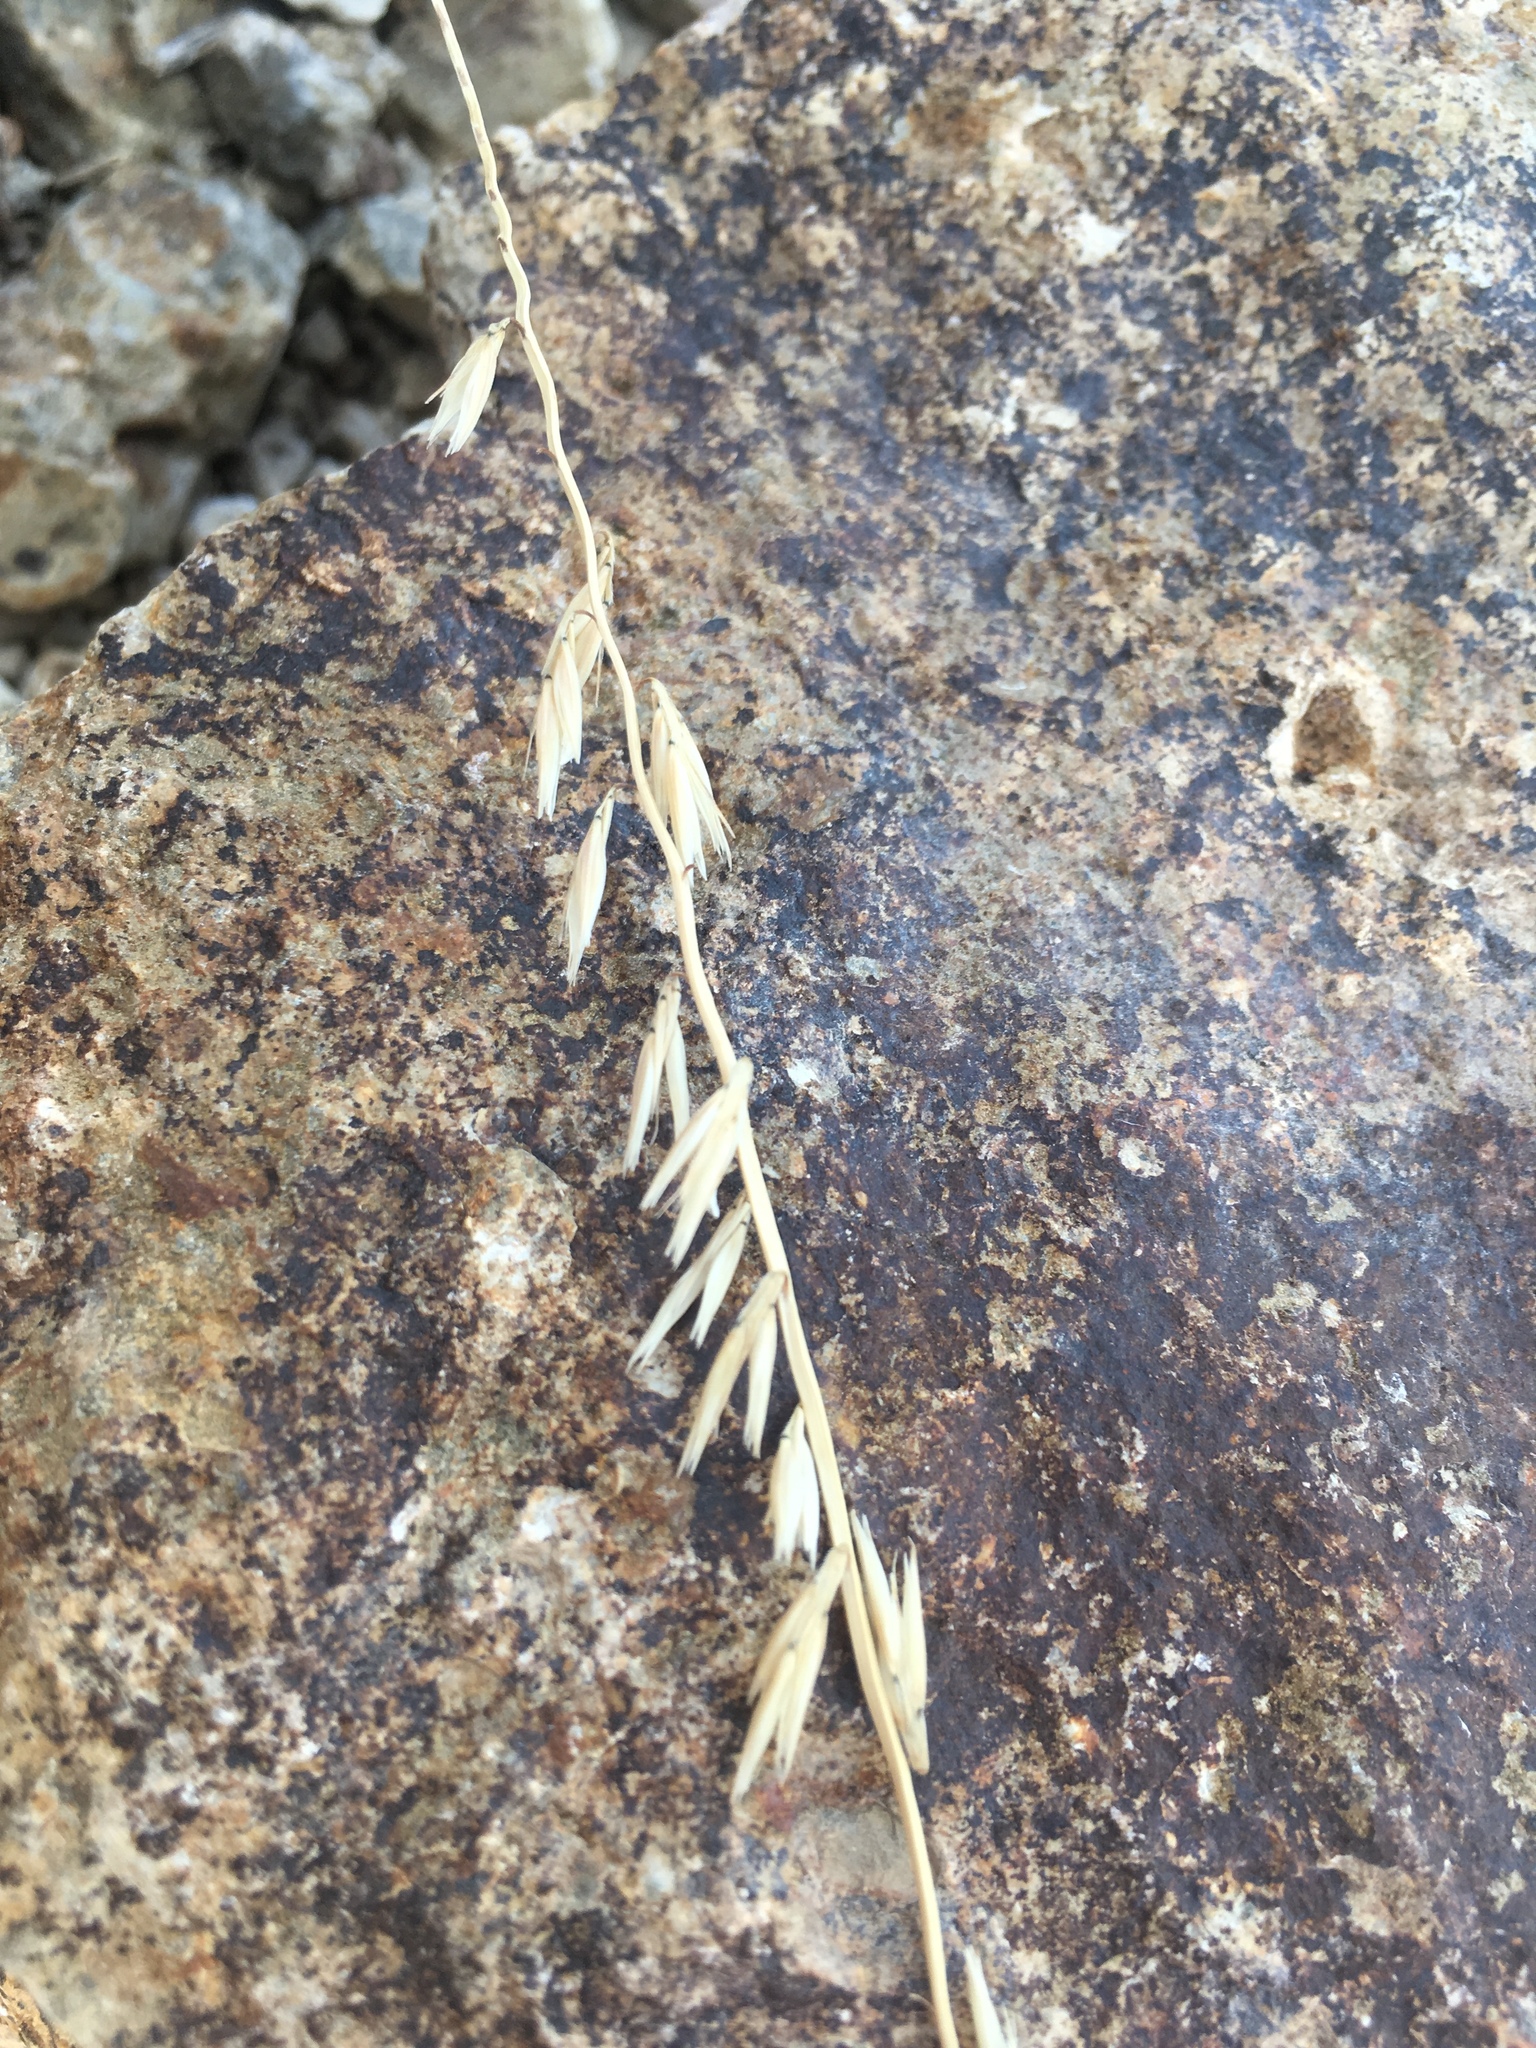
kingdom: Plantae
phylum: Tracheophyta
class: Liliopsida
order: Poales
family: Poaceae
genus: Bouteloua
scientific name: Bouteloua curtipendula
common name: Side-oats grama
